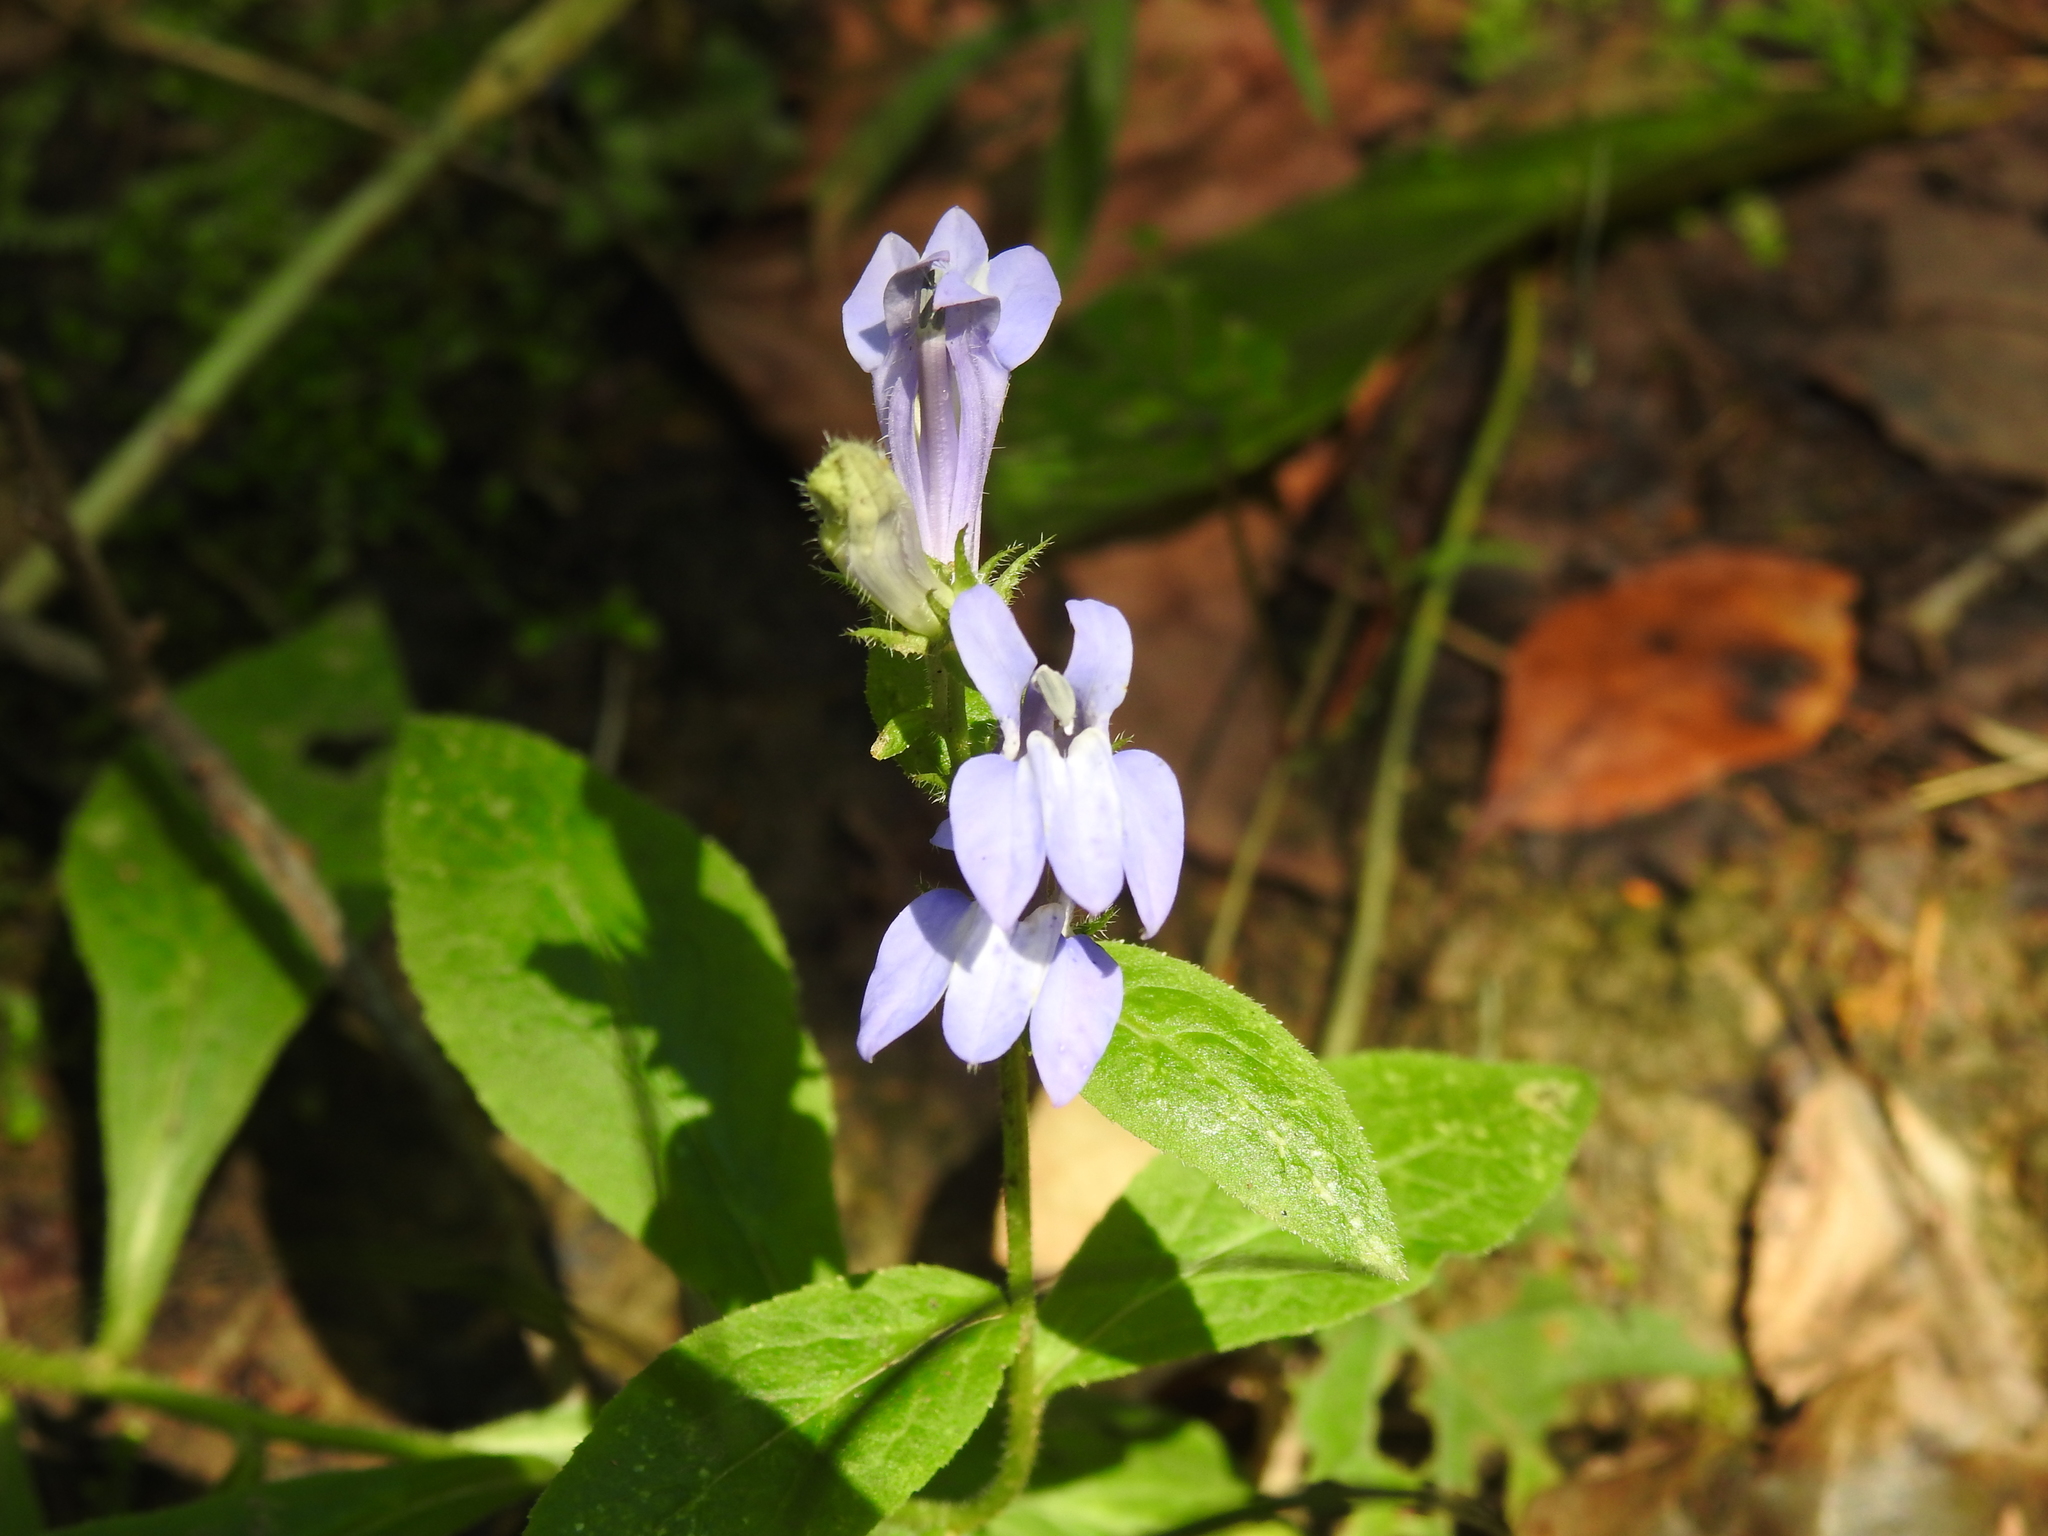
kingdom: Plantae
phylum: Tracheophyta
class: Magnoliopsida
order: Asterales
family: Campanulaceae
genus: Lobelia
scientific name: Lobelia siphilitica
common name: Great lobelia
